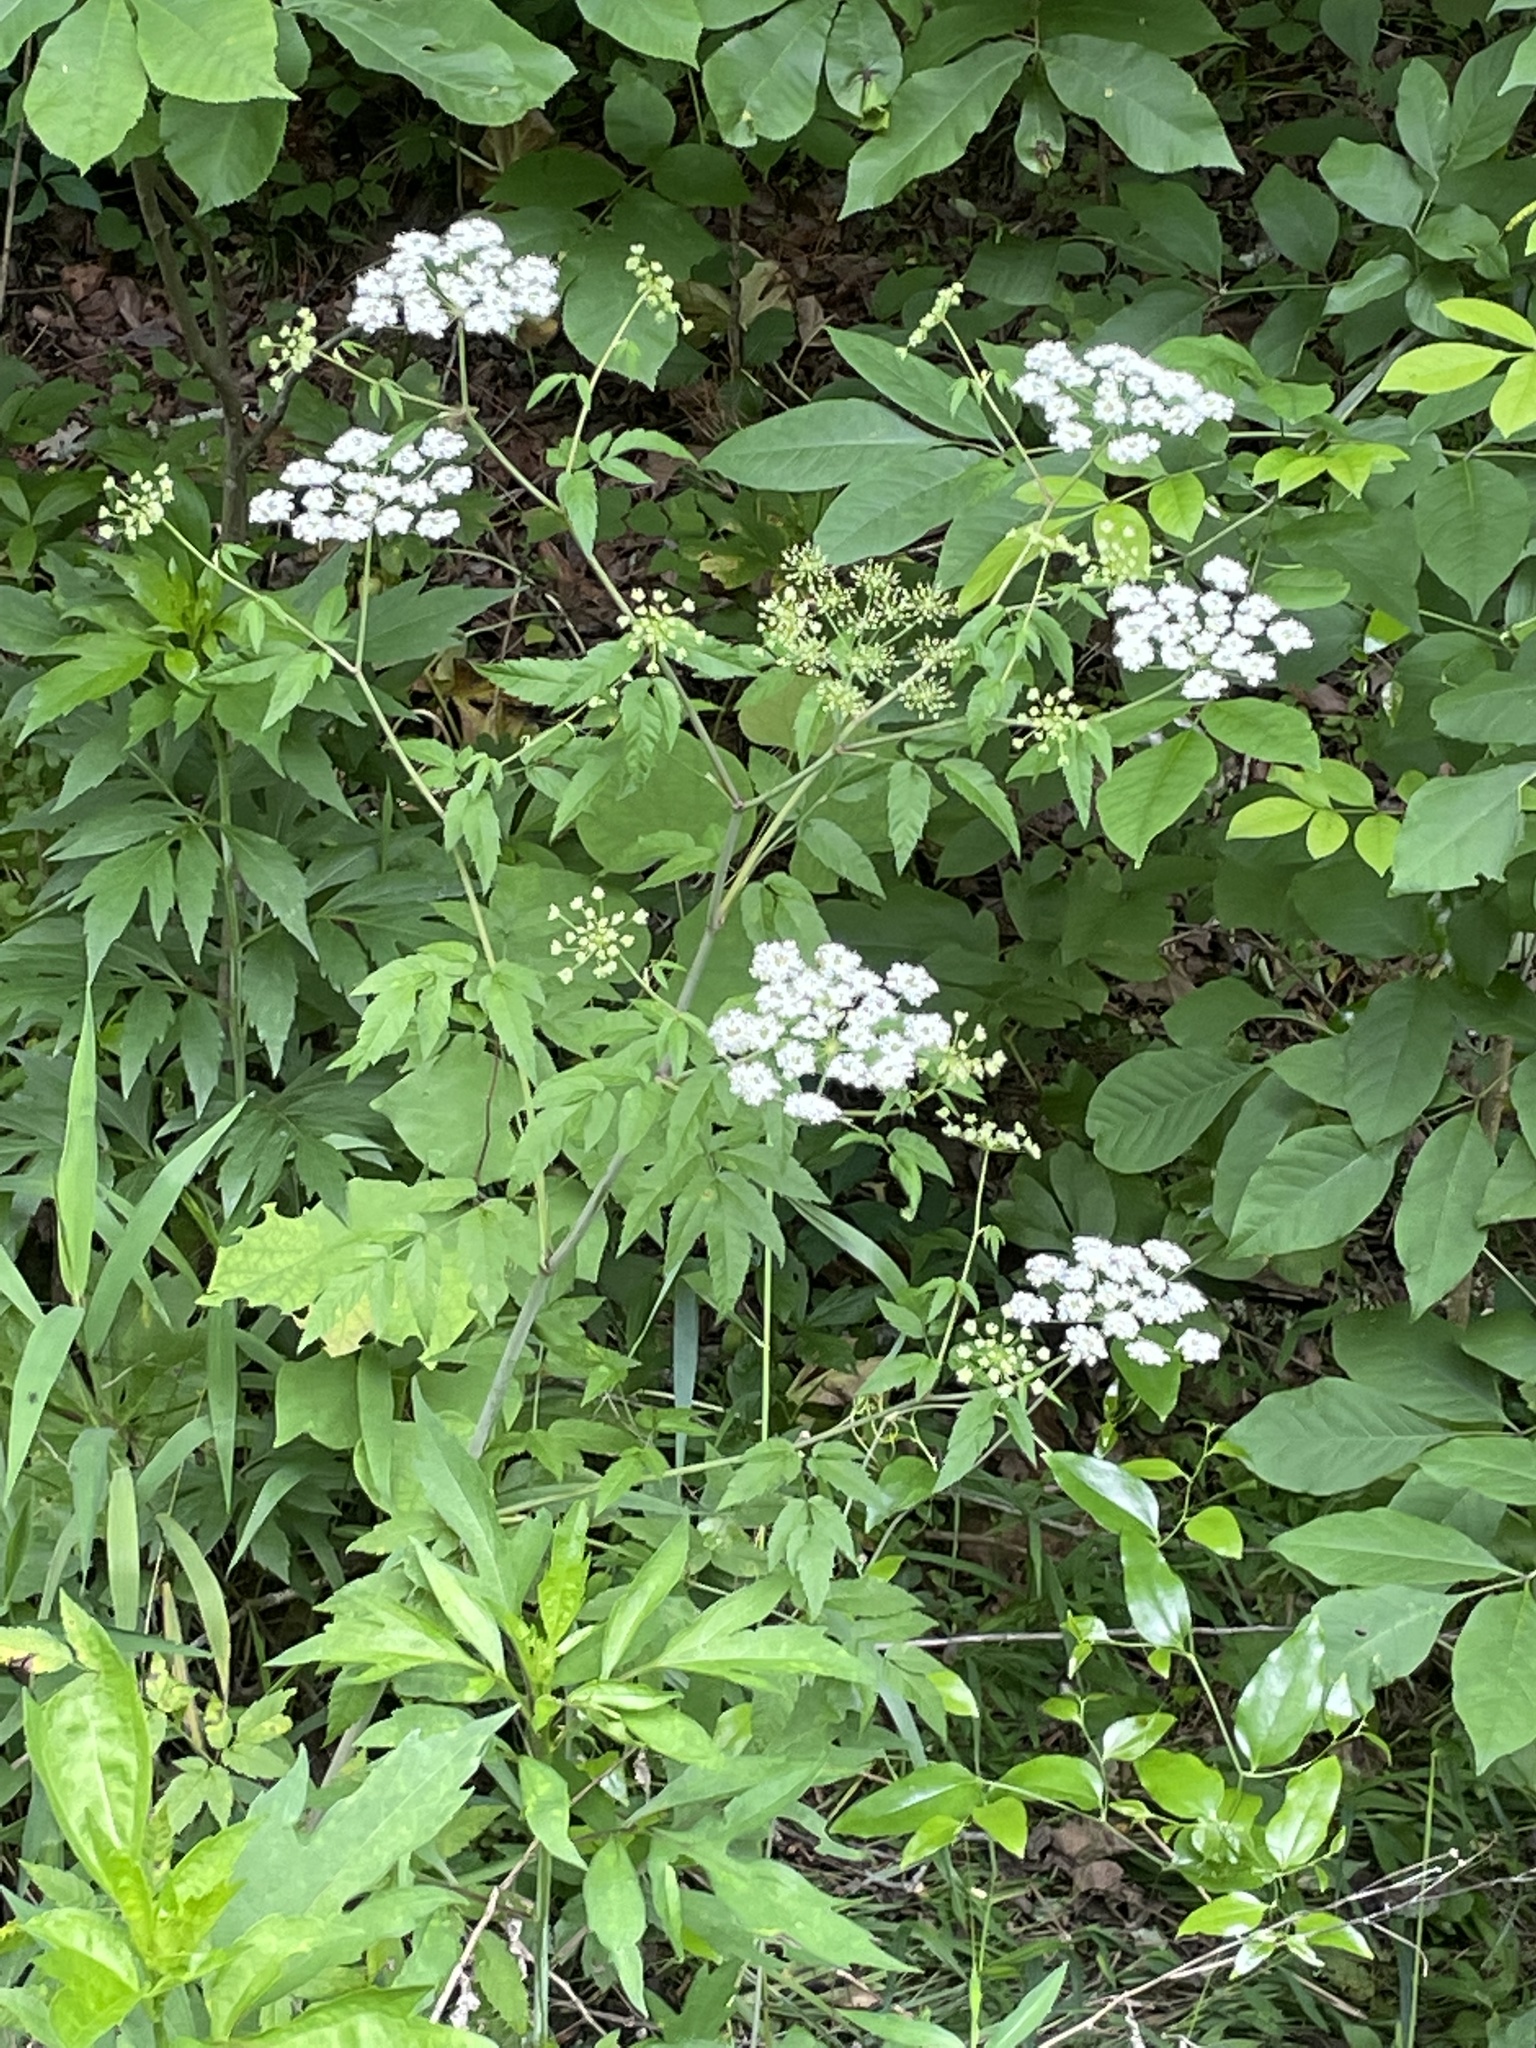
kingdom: Plantae
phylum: Tracheophyta
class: Magnoliopsida
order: Apiales
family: Apiaceae
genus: Cicuta
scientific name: Cicuta maculata
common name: Spotted cowbane
